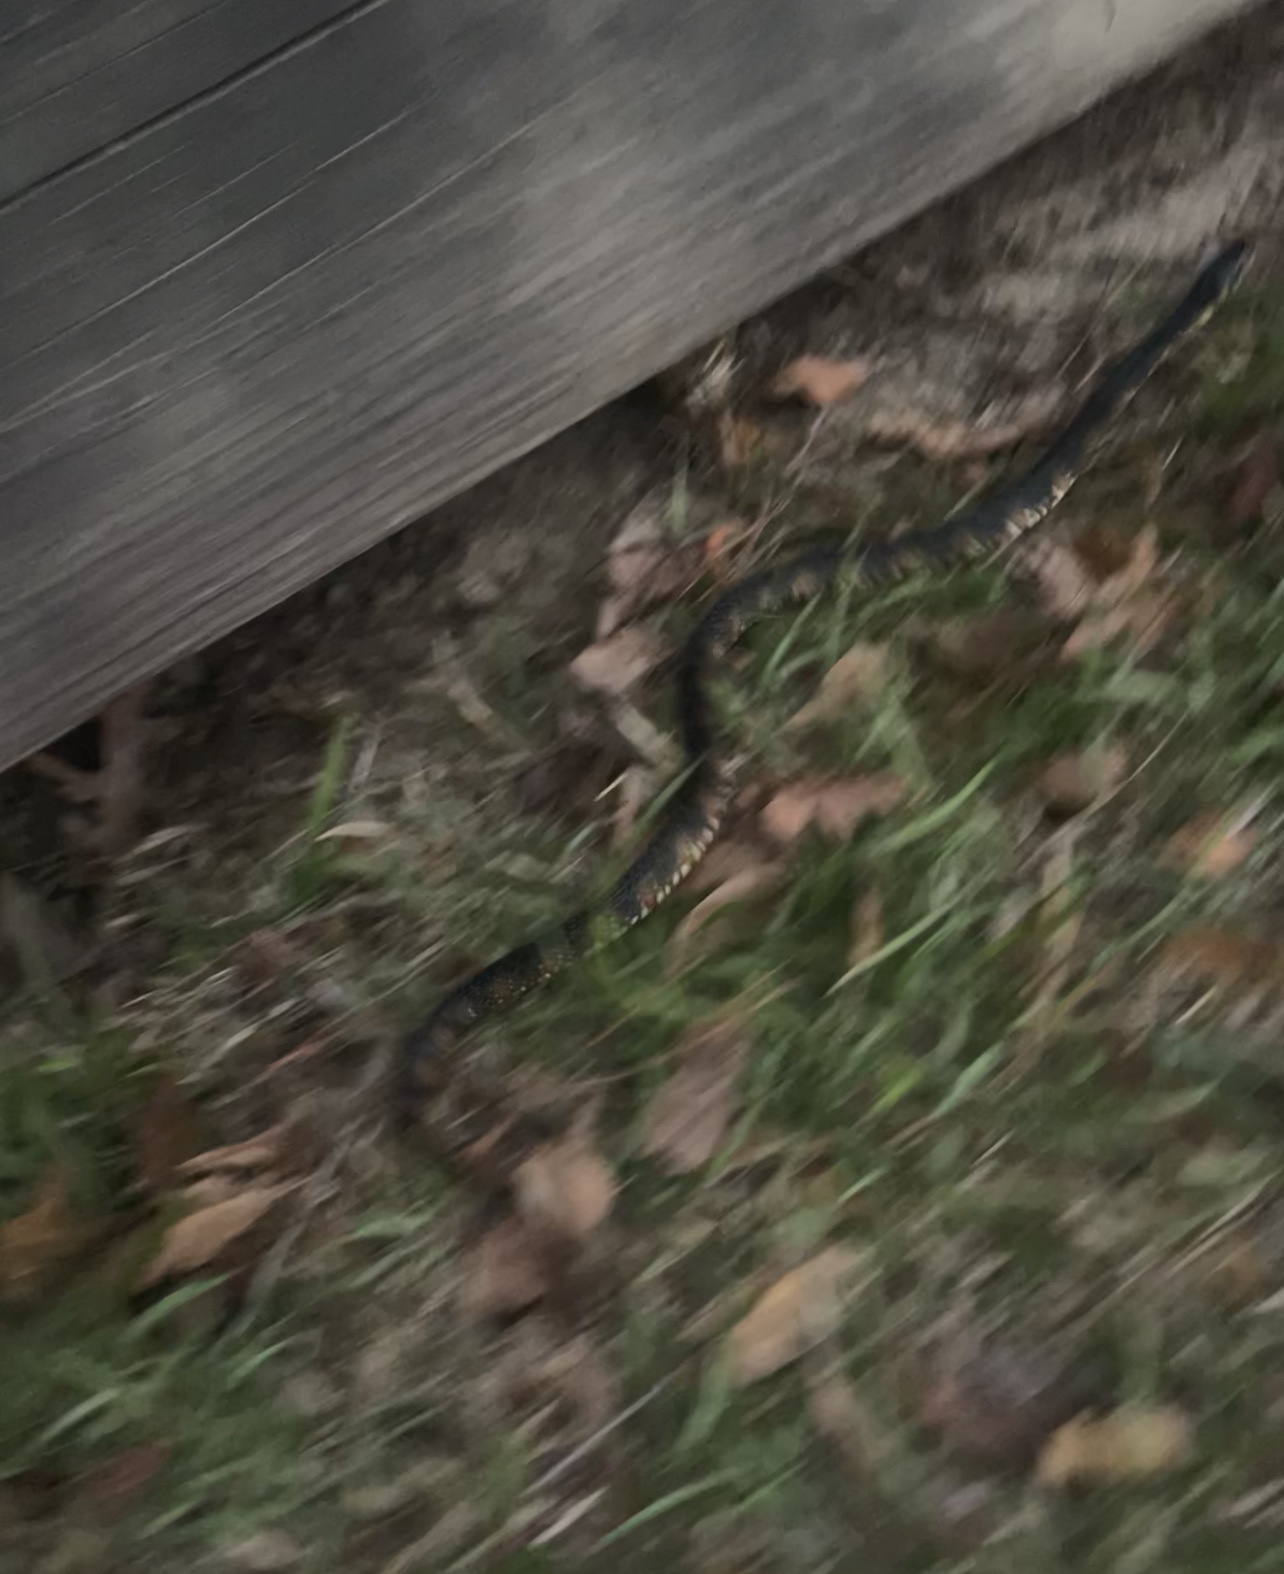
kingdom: Animalia
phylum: Chordata
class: Squamata
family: Colubridae
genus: Nerodia
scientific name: Nerodia fasciata
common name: Southern water snake
